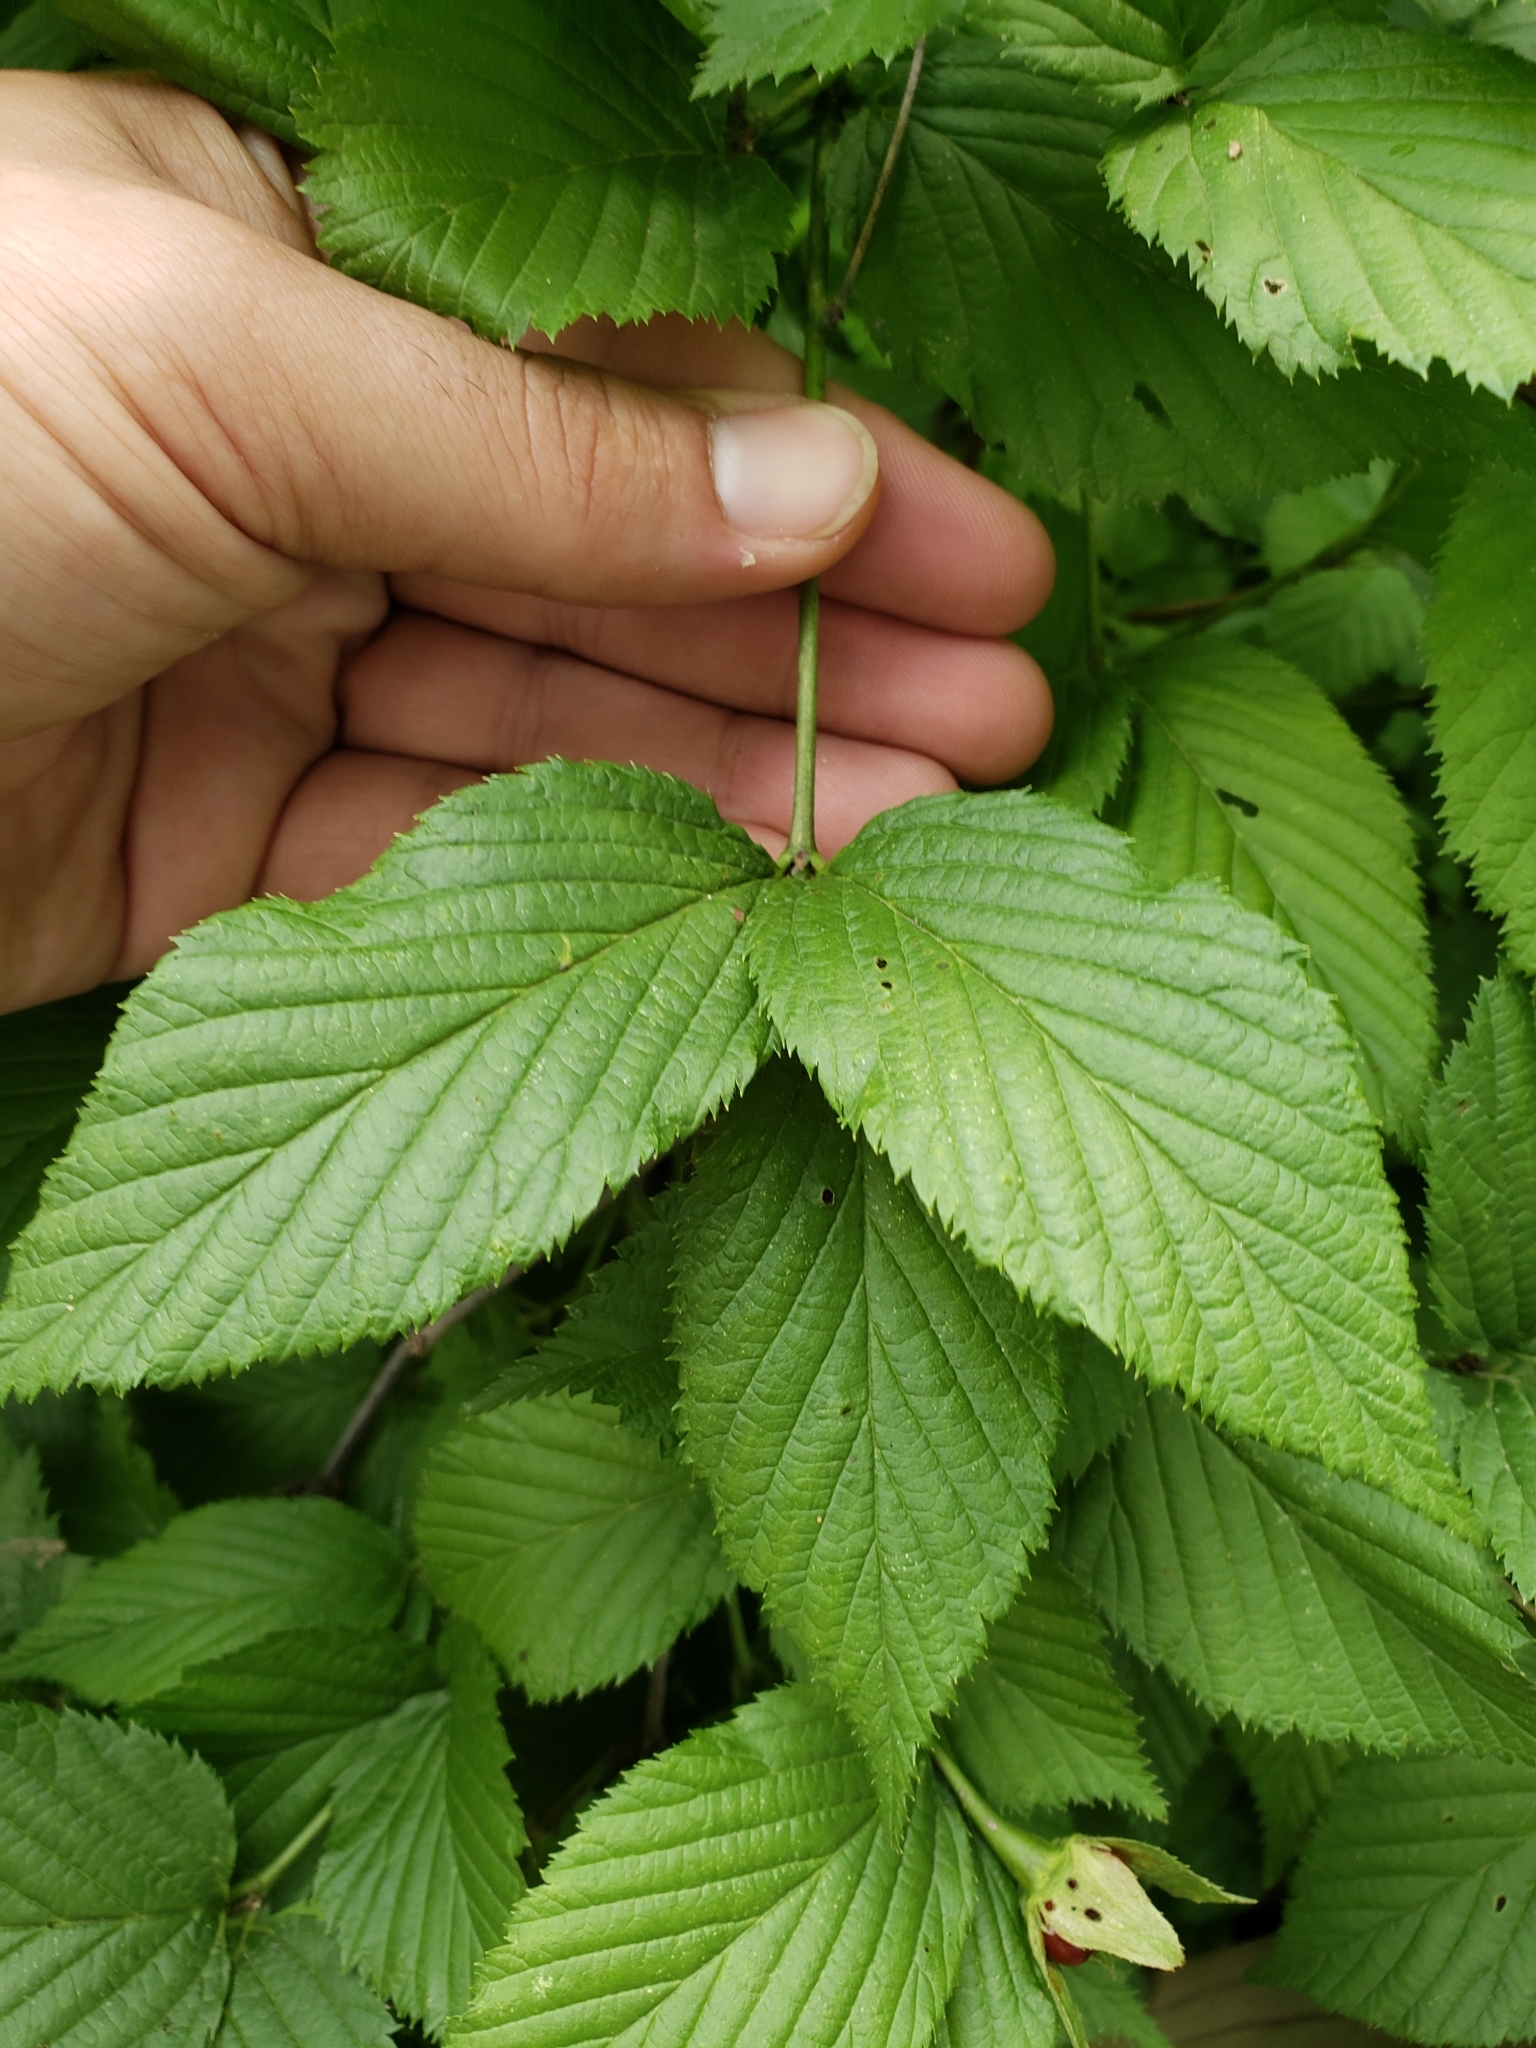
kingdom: Plantae
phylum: Tracheophyta
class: Magnoliopsida
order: Rosales
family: Rosaceae
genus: Rhodotypos
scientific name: Rhodotypos scandens
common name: Jetbead
